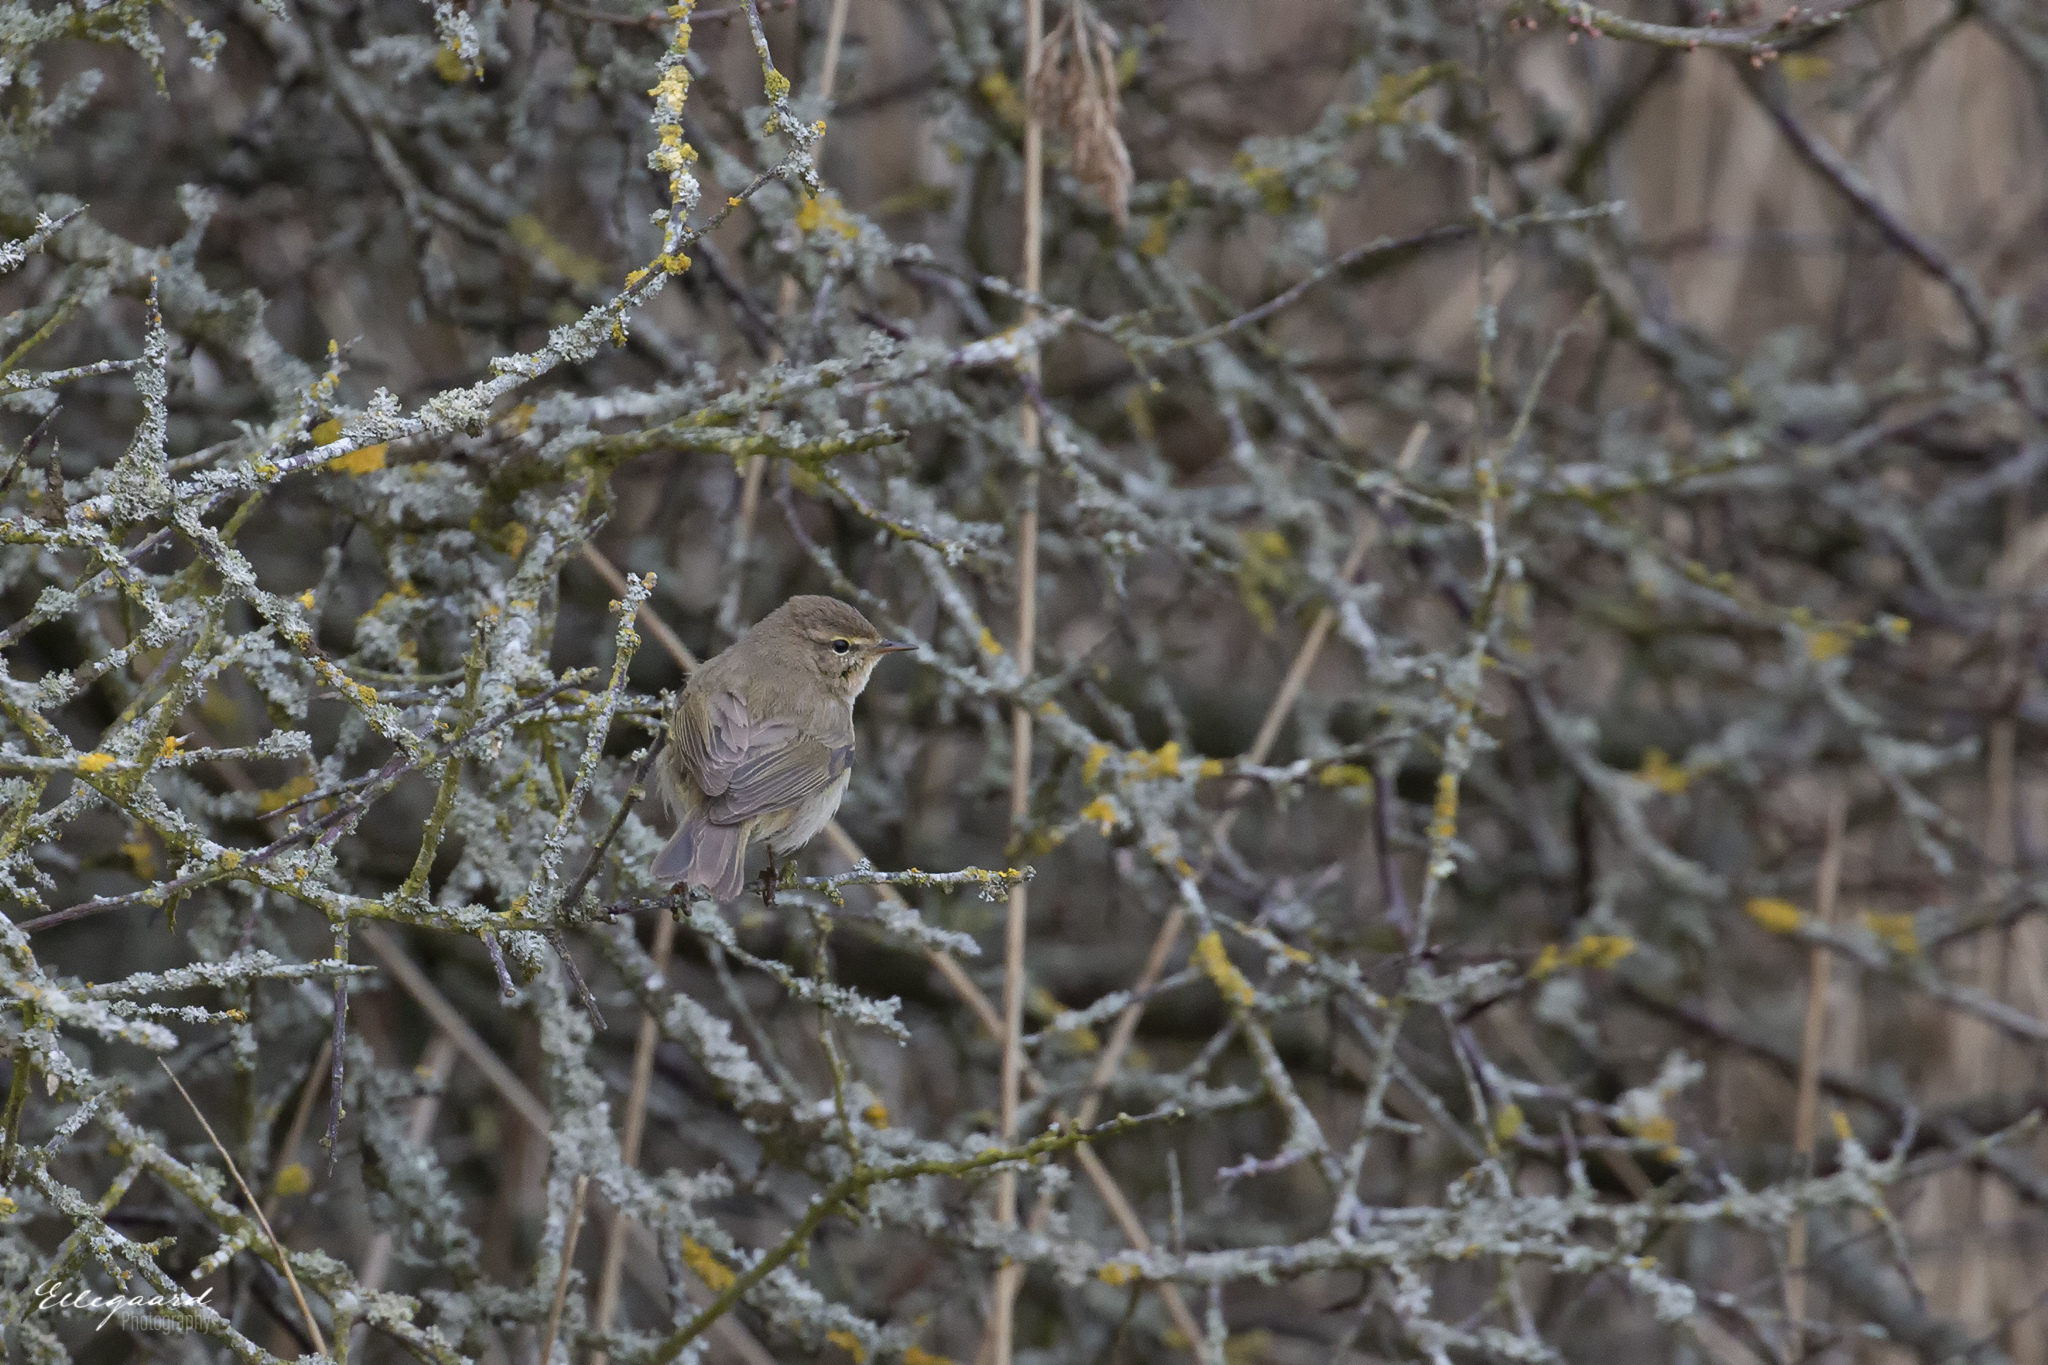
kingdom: Animalia
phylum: Chordata
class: Aves
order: Passeriformes
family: Phylloscopidae
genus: Phylloscopus
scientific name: Phylloscopus collybita
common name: Common chiffchaff
